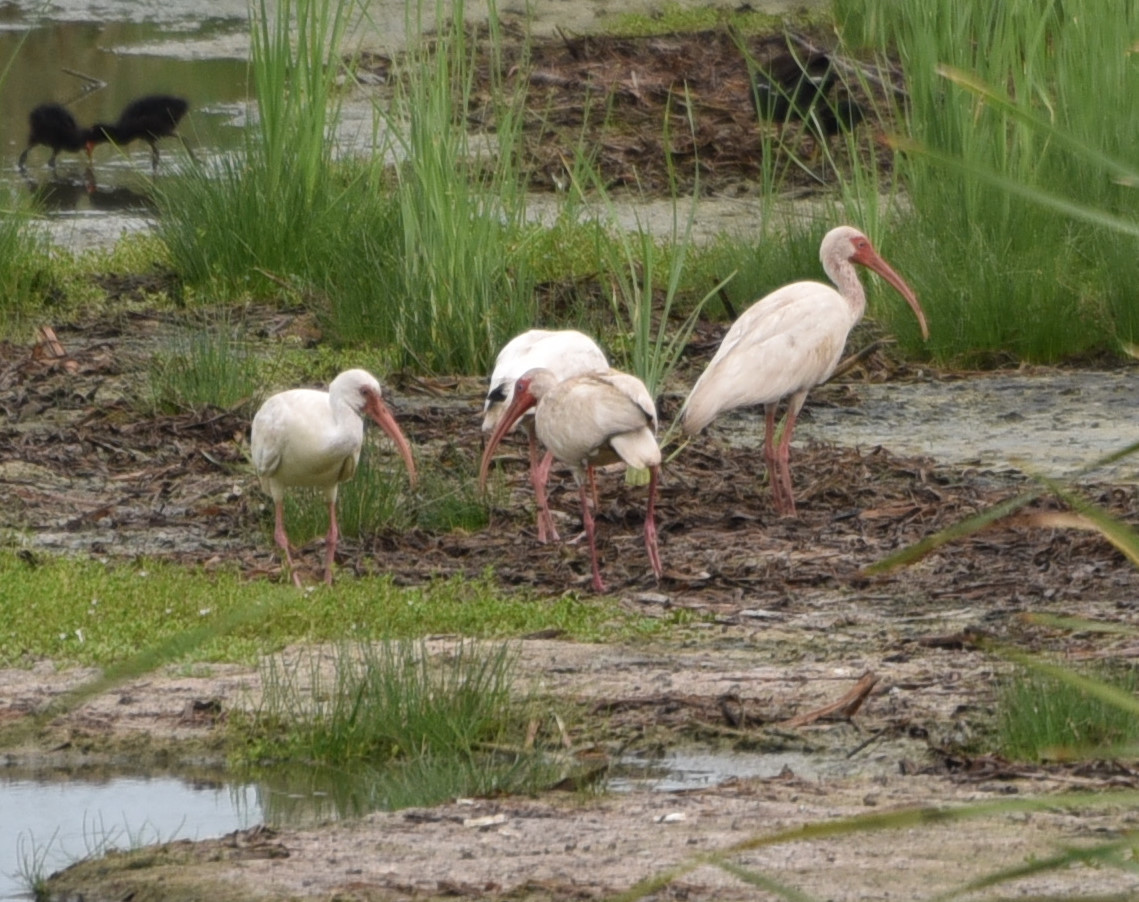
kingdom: Animalia
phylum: Chordata
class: Aves
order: Pelecaniformes
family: Threskiornithidae
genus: Eudocimus
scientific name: Eudocimus albus
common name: White ibis
